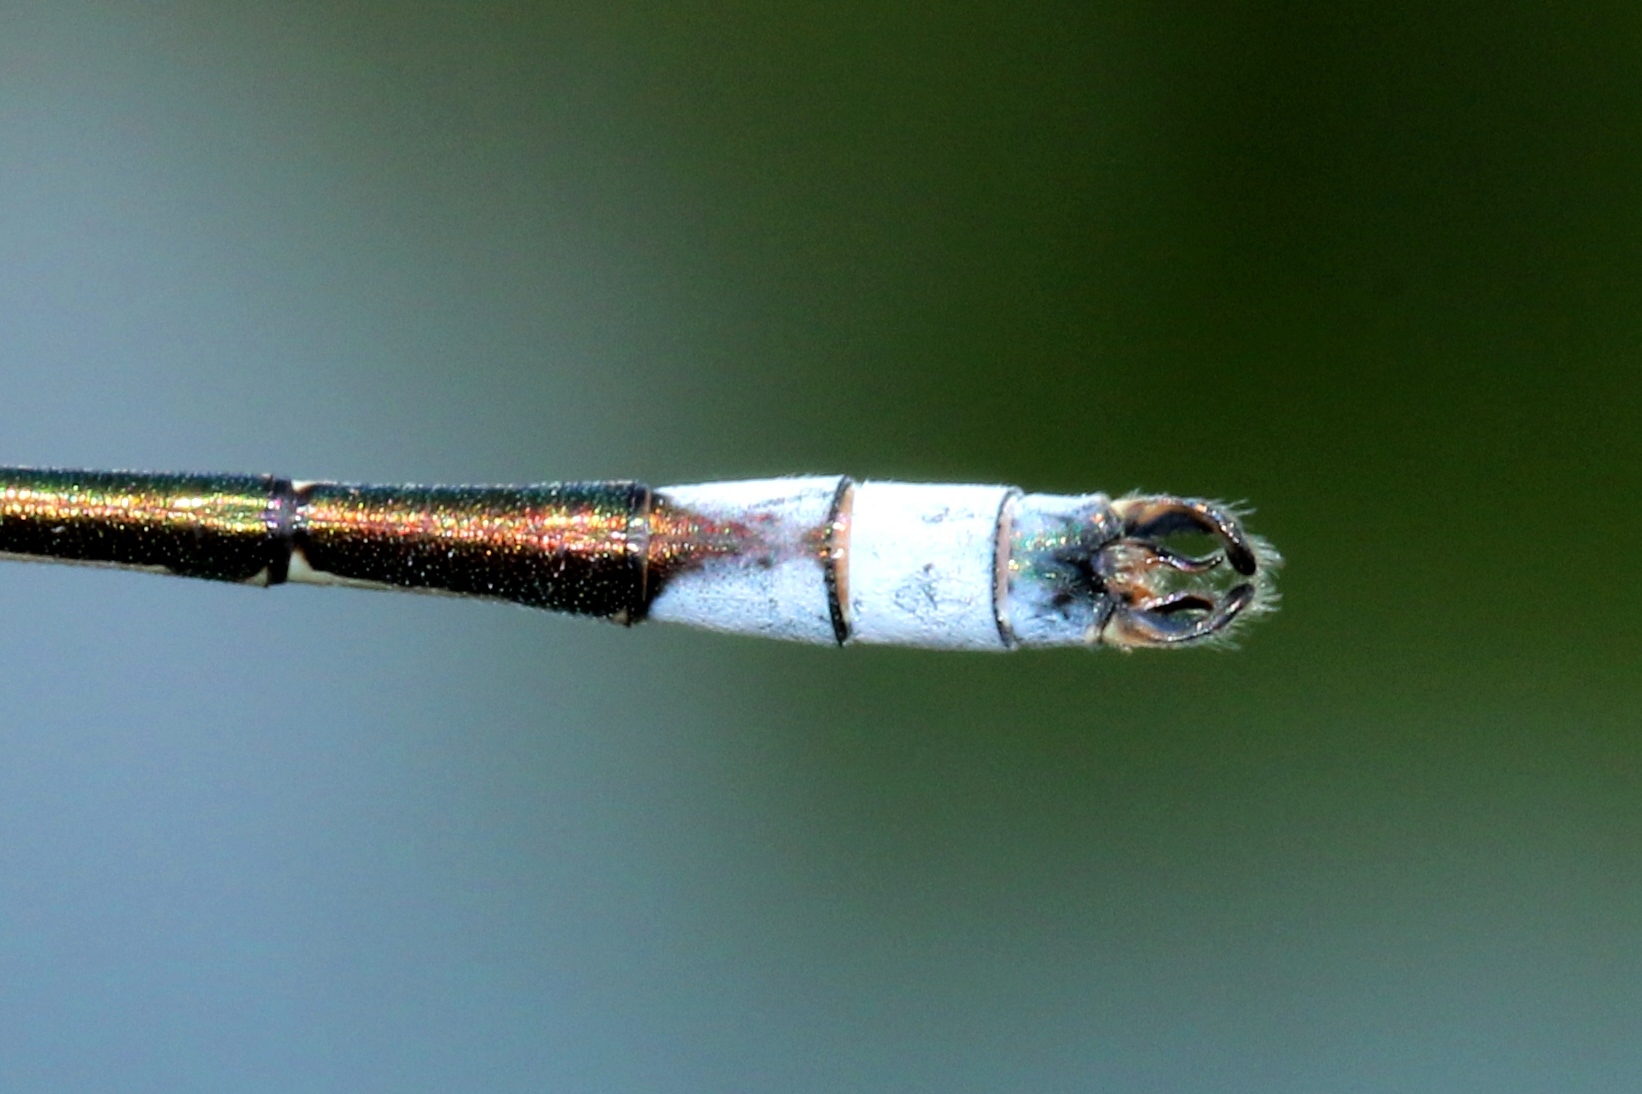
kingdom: Animalia
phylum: Arthropoda
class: Insecta
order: Odonata
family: Lestidae
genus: Lestes
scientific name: Lestes unguiculatus
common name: Lyre-tipped spreadwing
